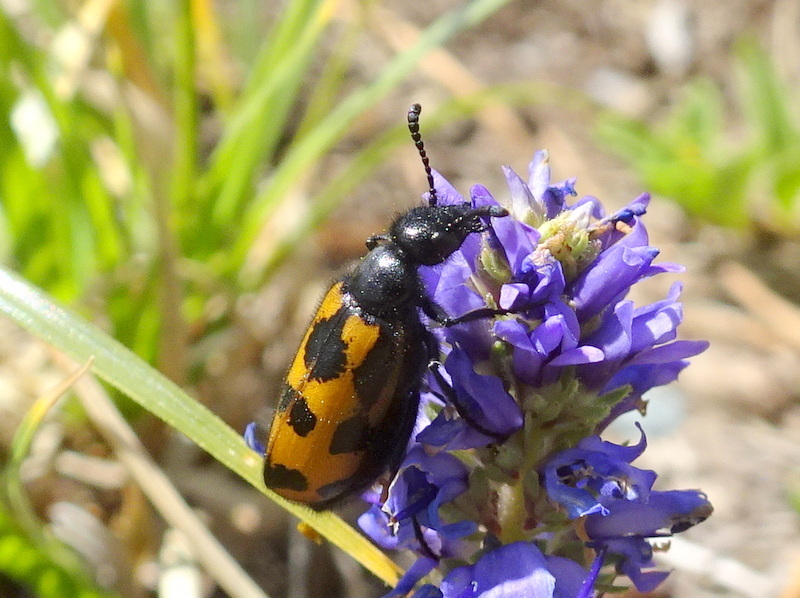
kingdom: Animalia
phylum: Arthropoda
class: Insecta
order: Coleoptera
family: Meloidae
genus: Mylabris
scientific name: Mylabris flexuosa
